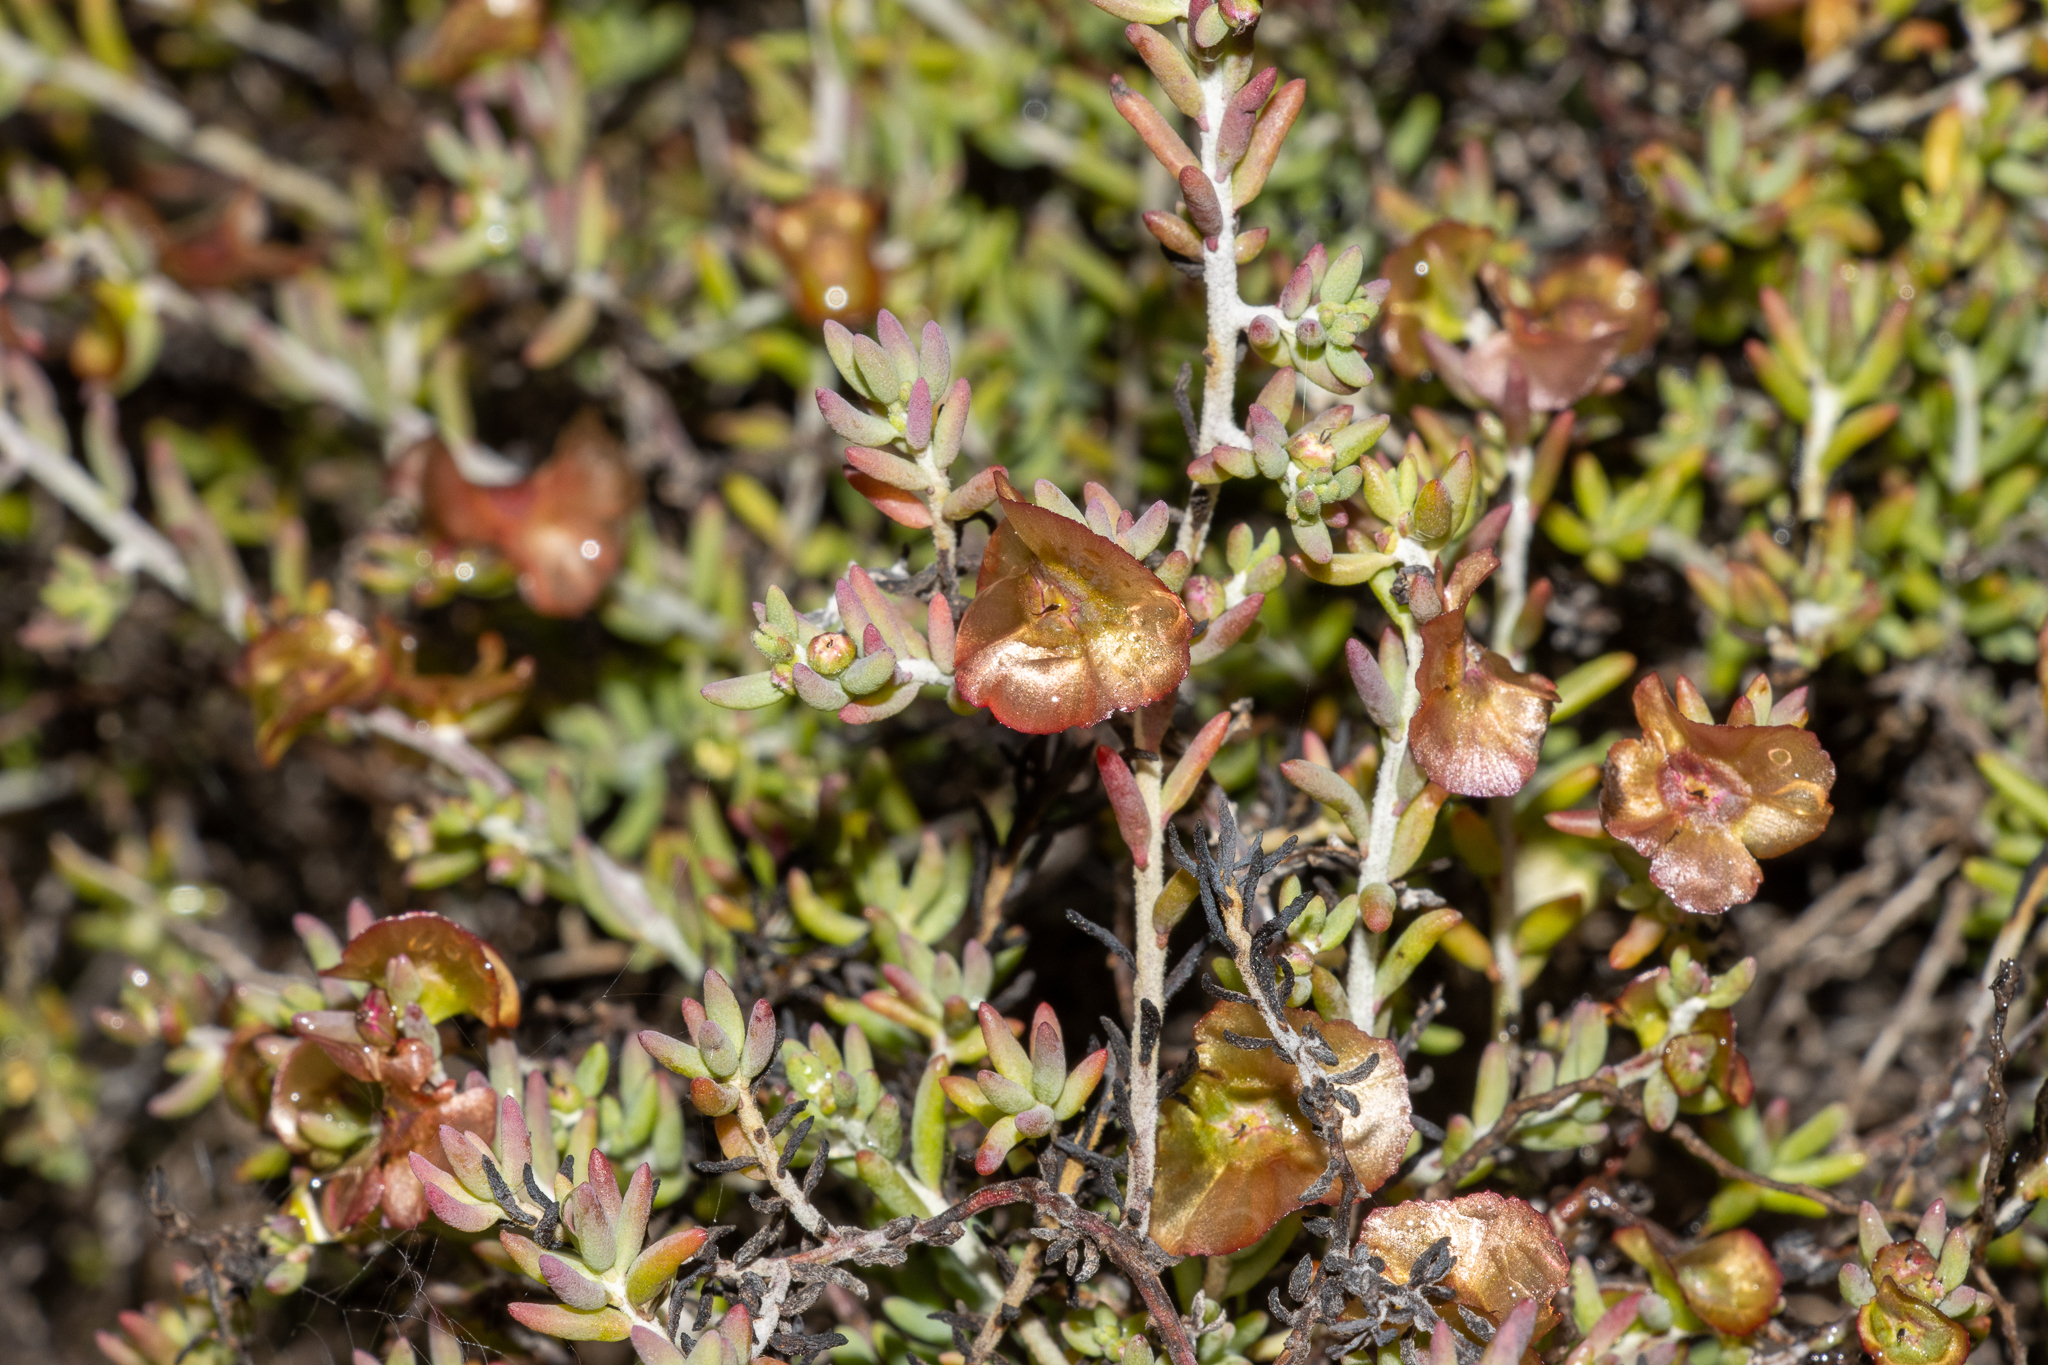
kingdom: Plantae
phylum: Tracheophyta
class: Magnoliopsida
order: Caryophyllales
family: Amaranthaceae
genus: Maireana
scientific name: Maireana georgei
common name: Satiny bluebush
